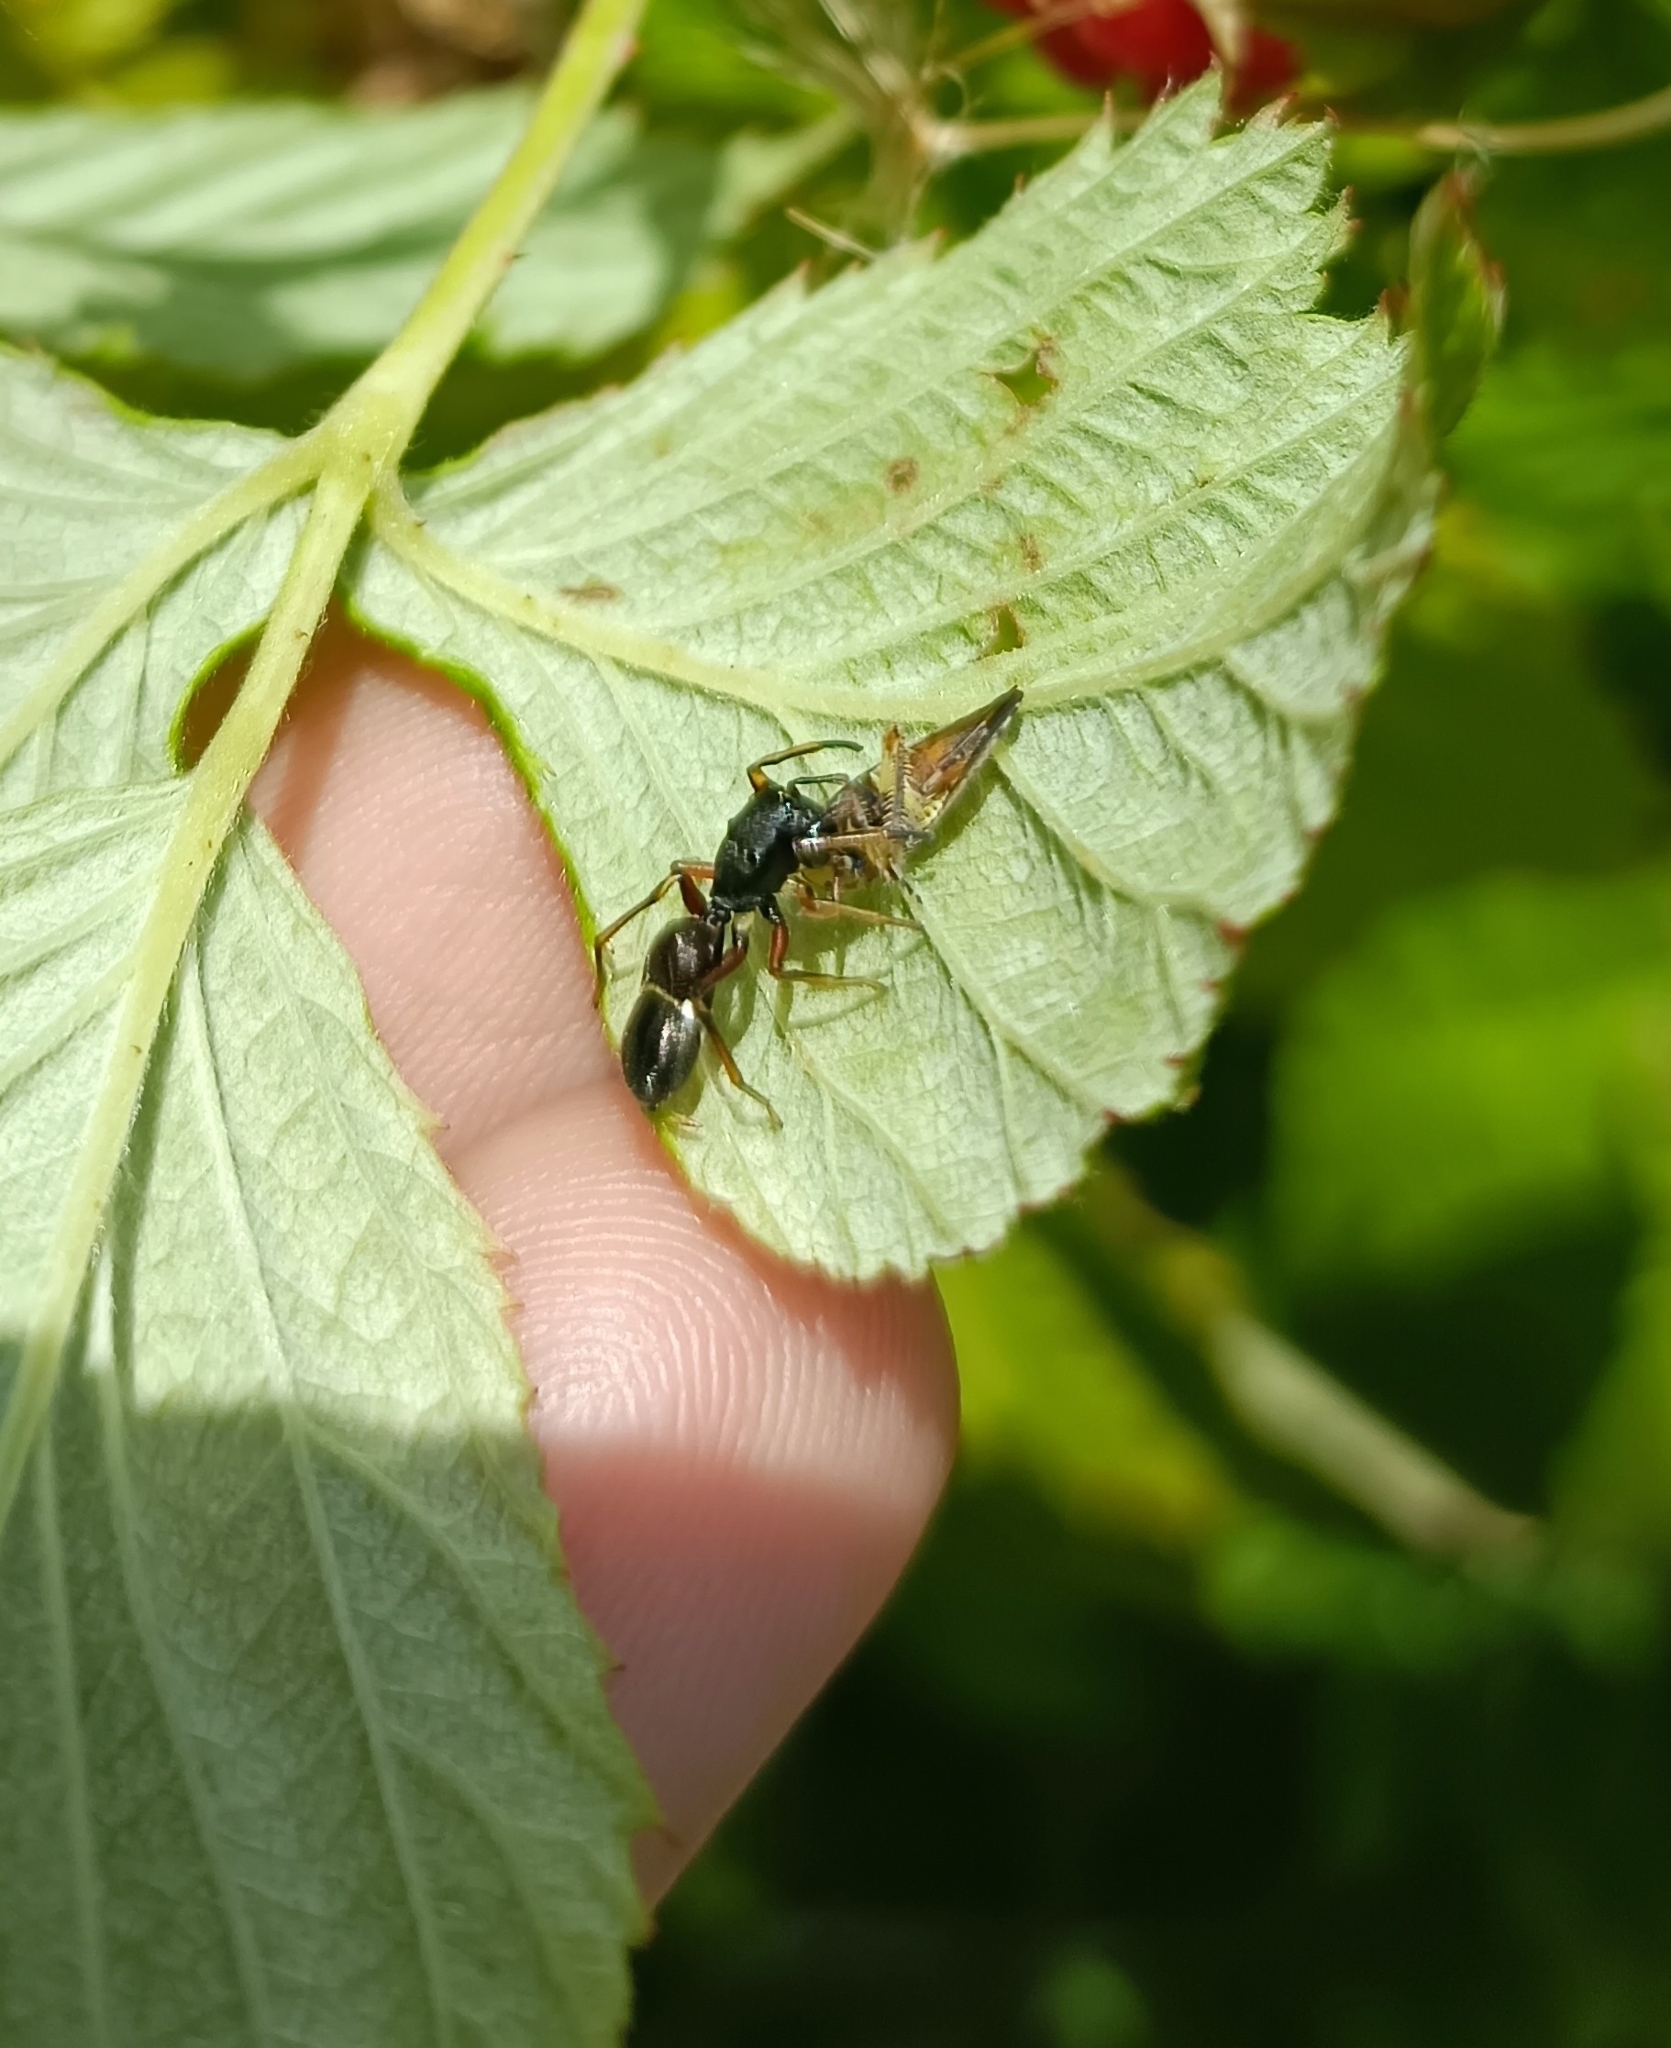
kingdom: Animalia
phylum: Arthropoda
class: Arachnida
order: Araneae
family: Salticidae
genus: Leptorchestes
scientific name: Leptorchestes berolinensis
